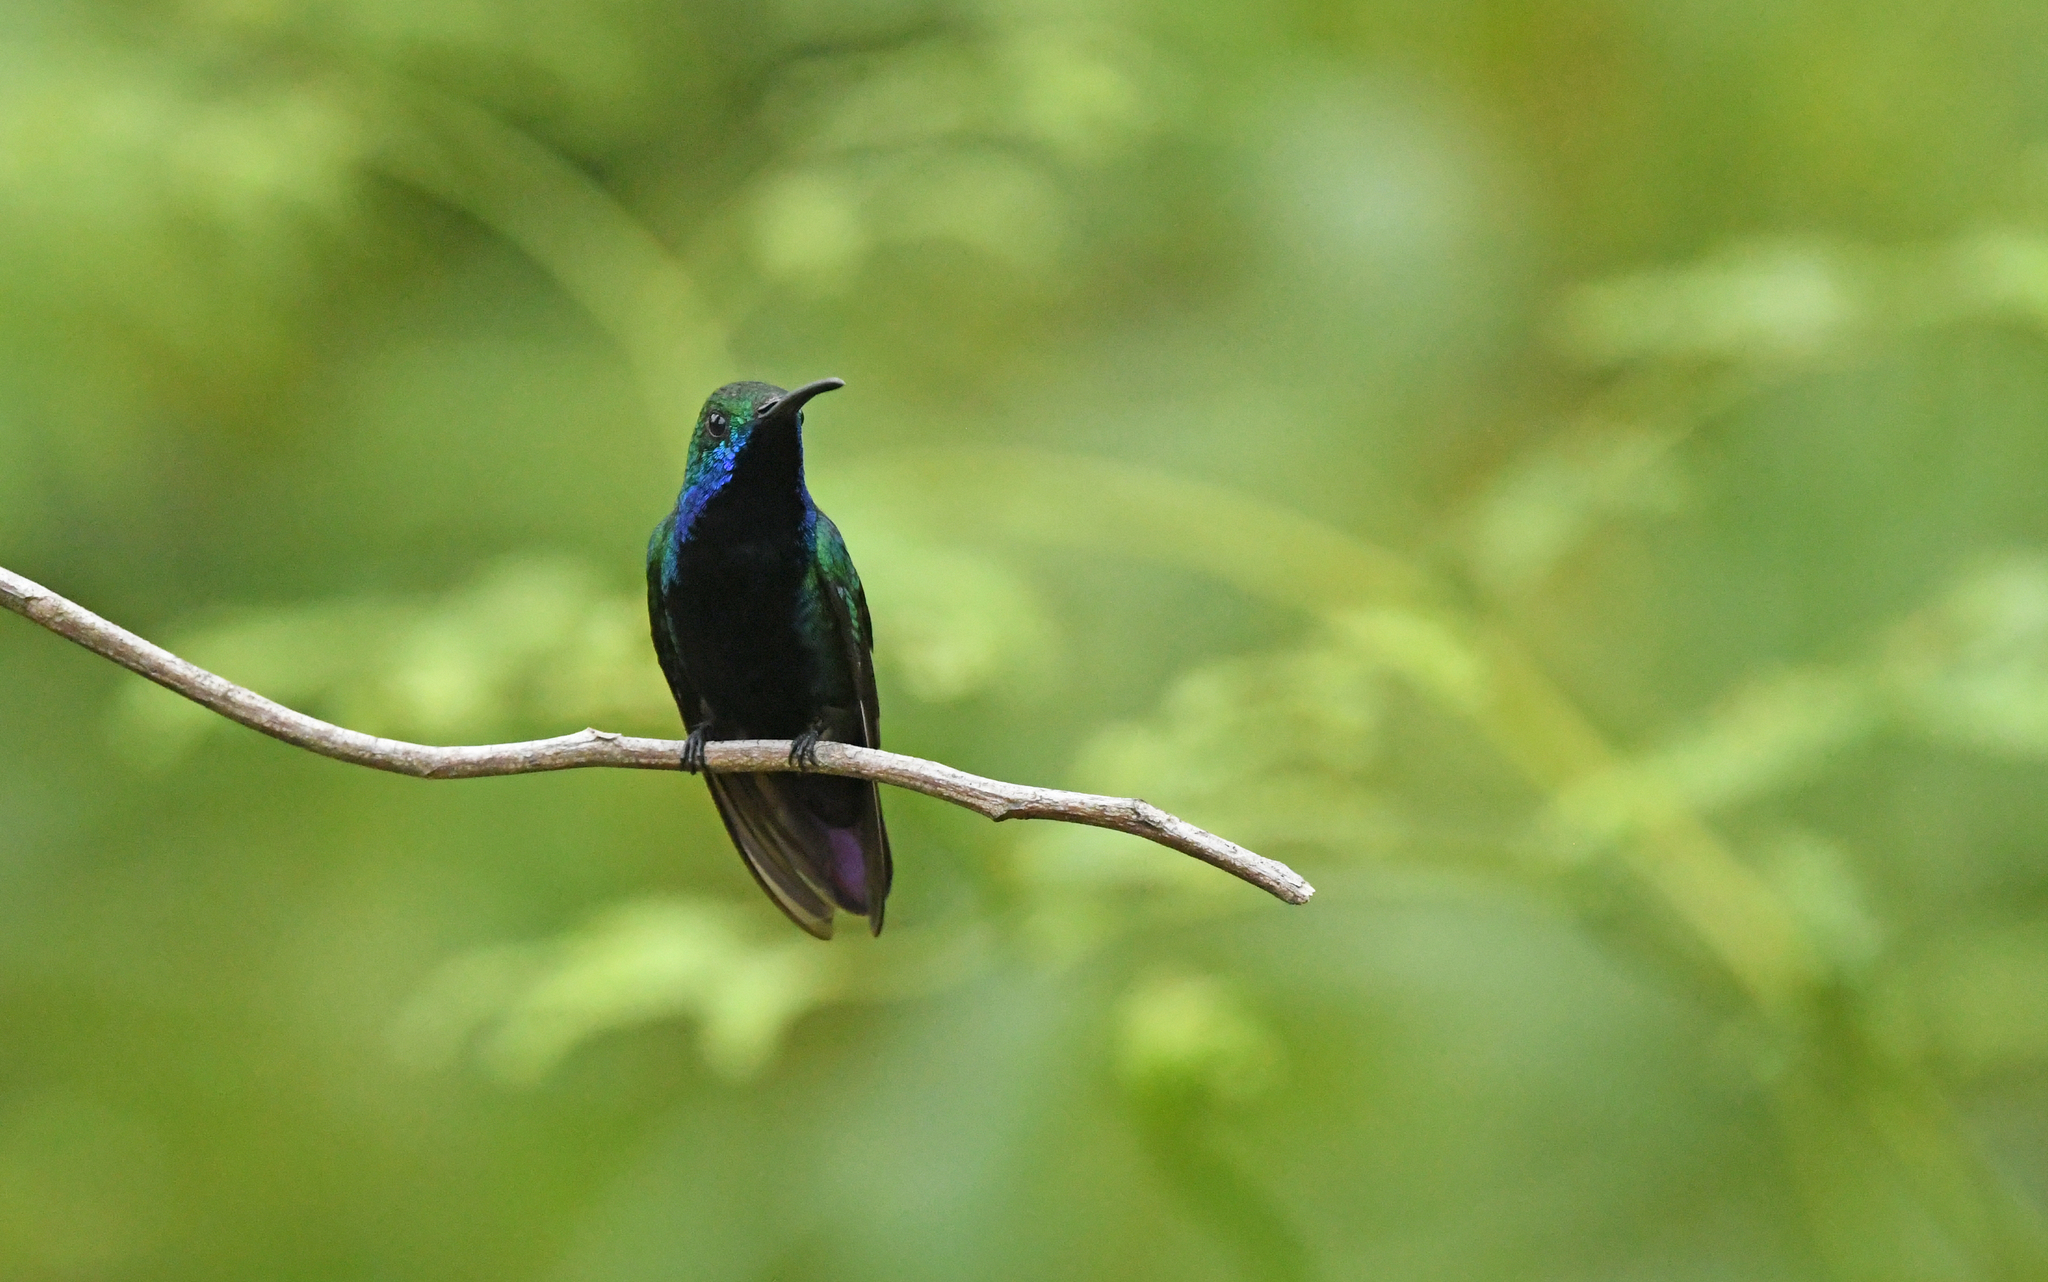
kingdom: Animalia
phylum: Chordata
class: Aves
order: Apodiformes
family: Trochilidae
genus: Anthracothorax
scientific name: Anthracothorax nigricollis
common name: Black-throated mango
